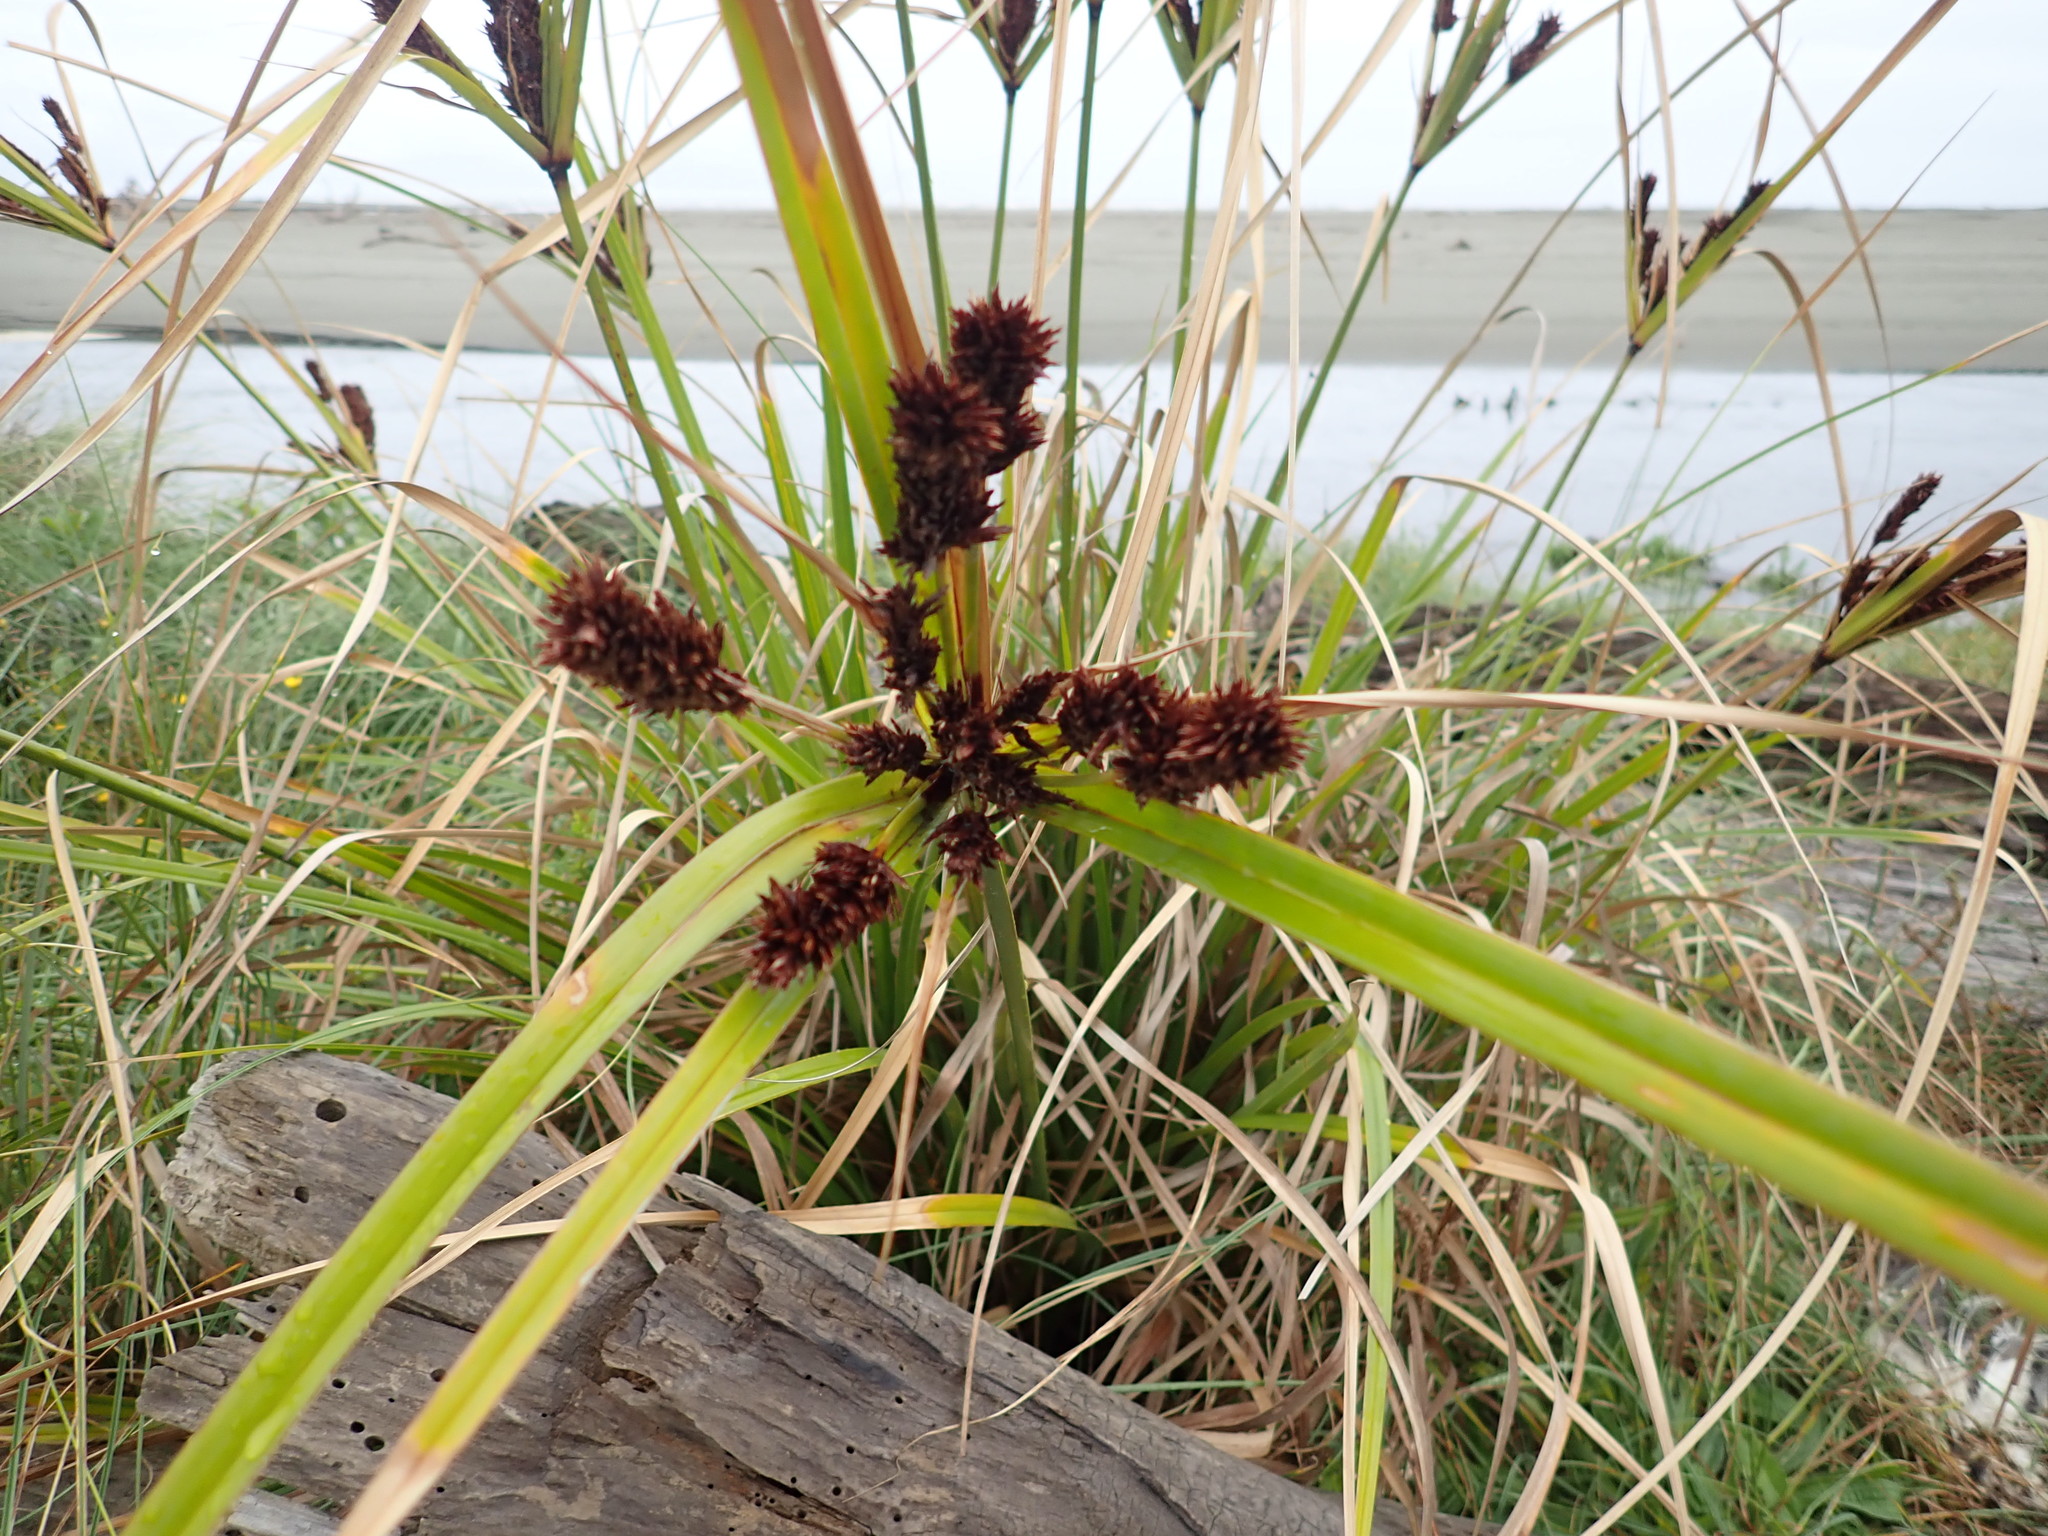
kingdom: Plantae
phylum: Tracheophyta
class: Liliopsida
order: Poales
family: Cyperaceae
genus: Cyperus
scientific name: Cyperus ustulatus
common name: Giant umbrella-sedge
